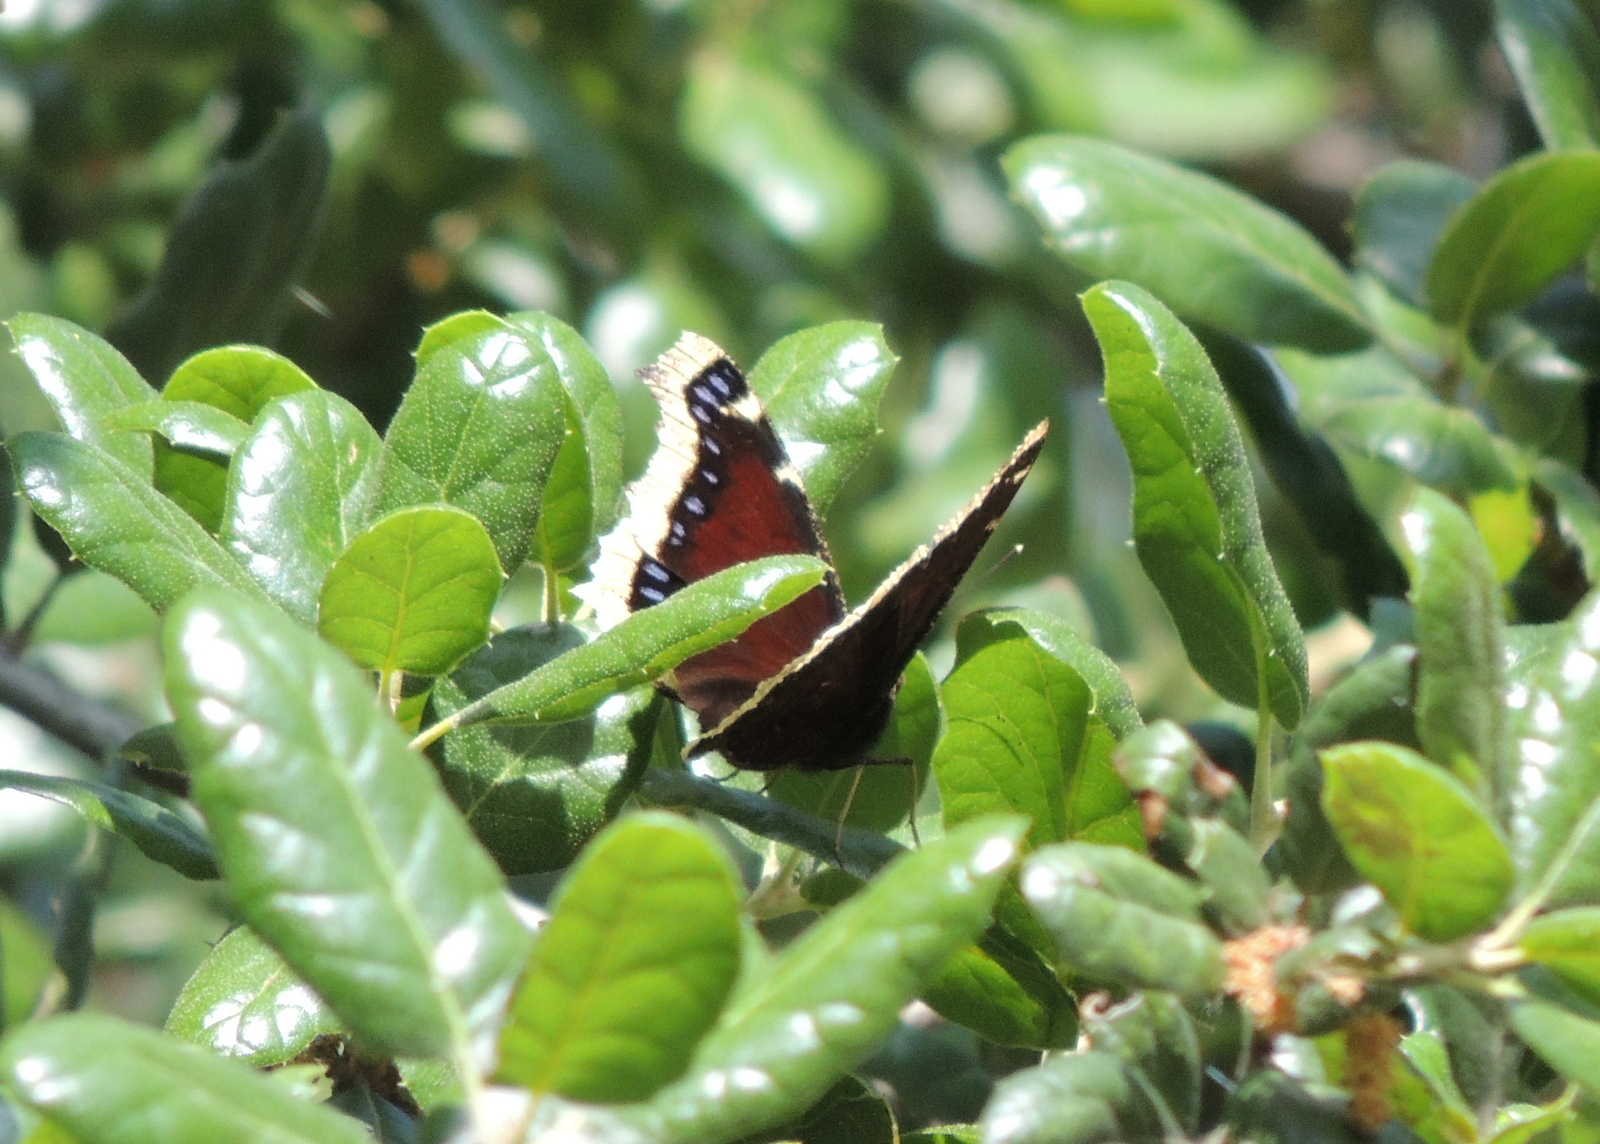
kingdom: Animalia
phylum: Arthropoda
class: Insecta
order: Lepidoptera
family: Nymphalidae
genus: Nymphalis
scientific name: Nymphalis antiopa
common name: Camberwell beauty
